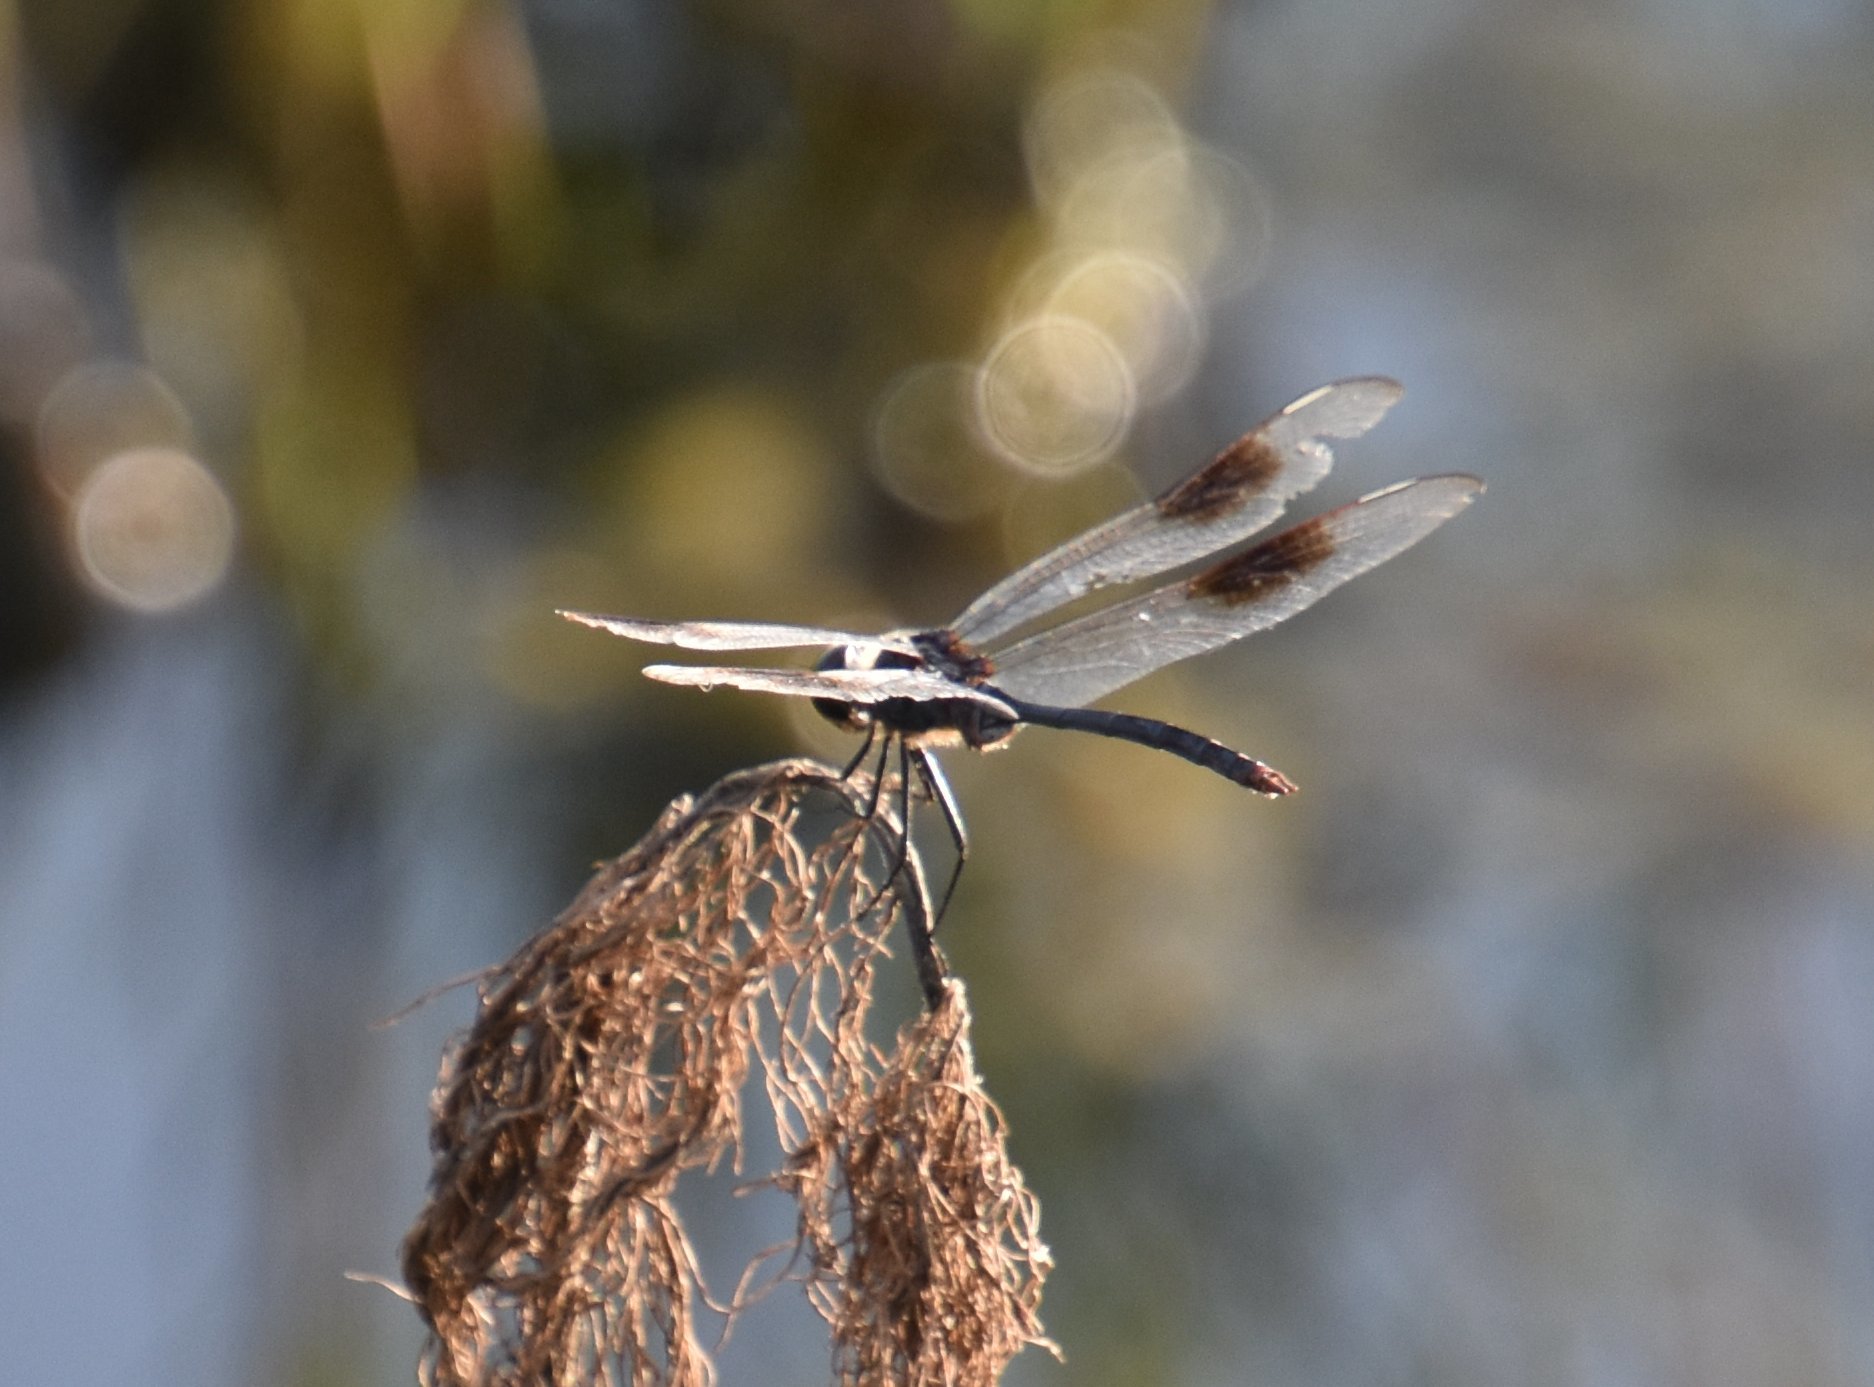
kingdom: Animalia
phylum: Arthropoda
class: Insecta
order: Odonata
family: Libellulidae
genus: Brachymesia
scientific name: Brachymesia gravida
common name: Four-spotted pennant
